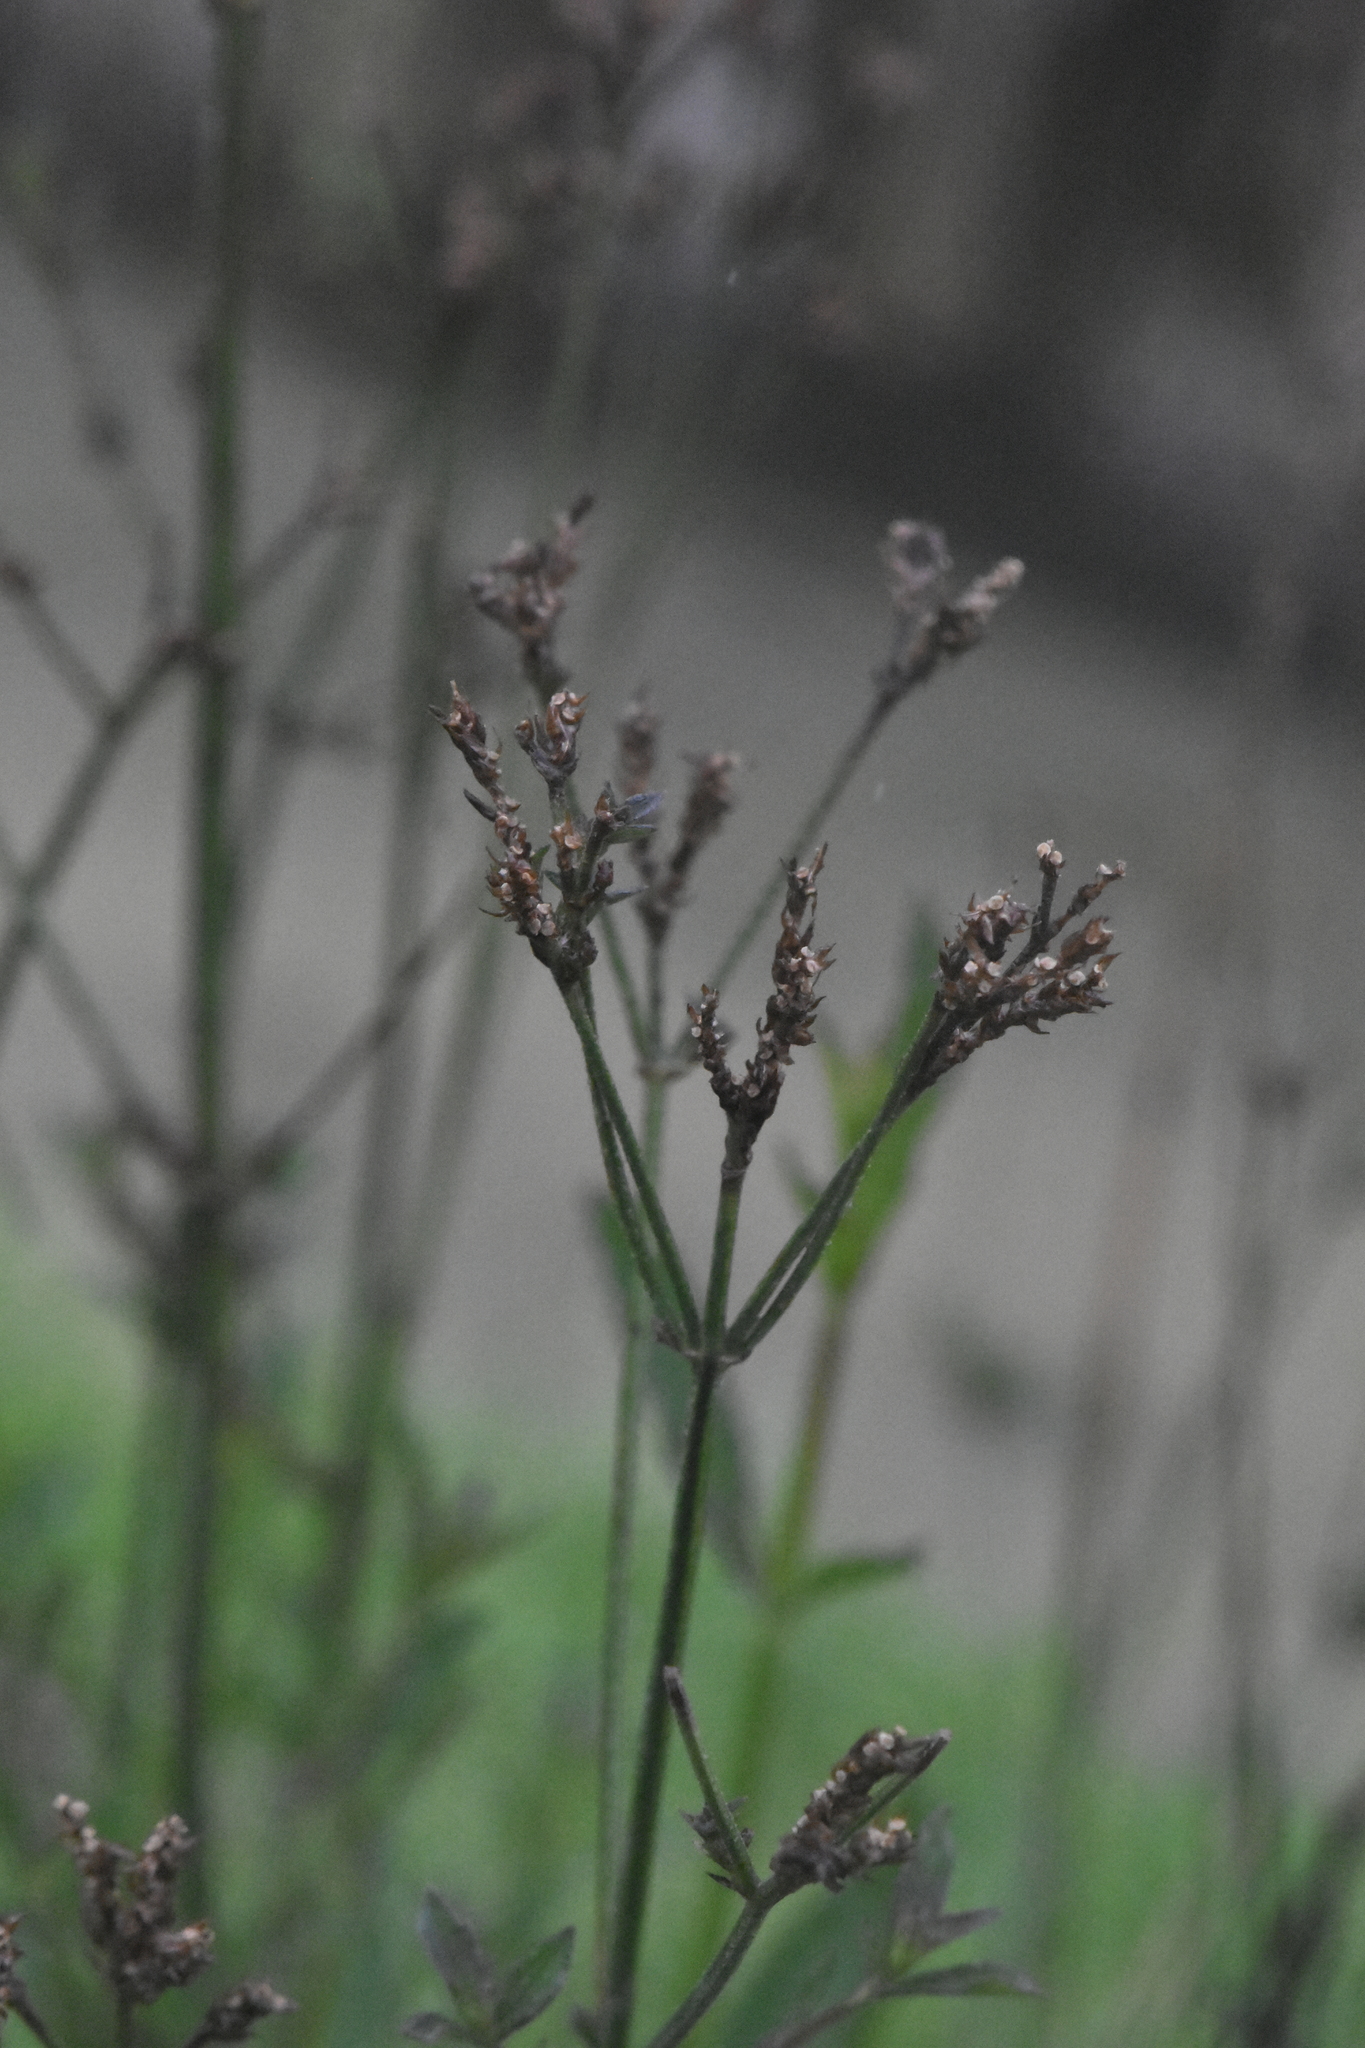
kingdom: Plantae
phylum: Tracheophyta
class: Magnoliopsida
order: Lamiales
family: Verbenaceae
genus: Verbena
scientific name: Verbena brasiliensis
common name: Brazilian vervain
